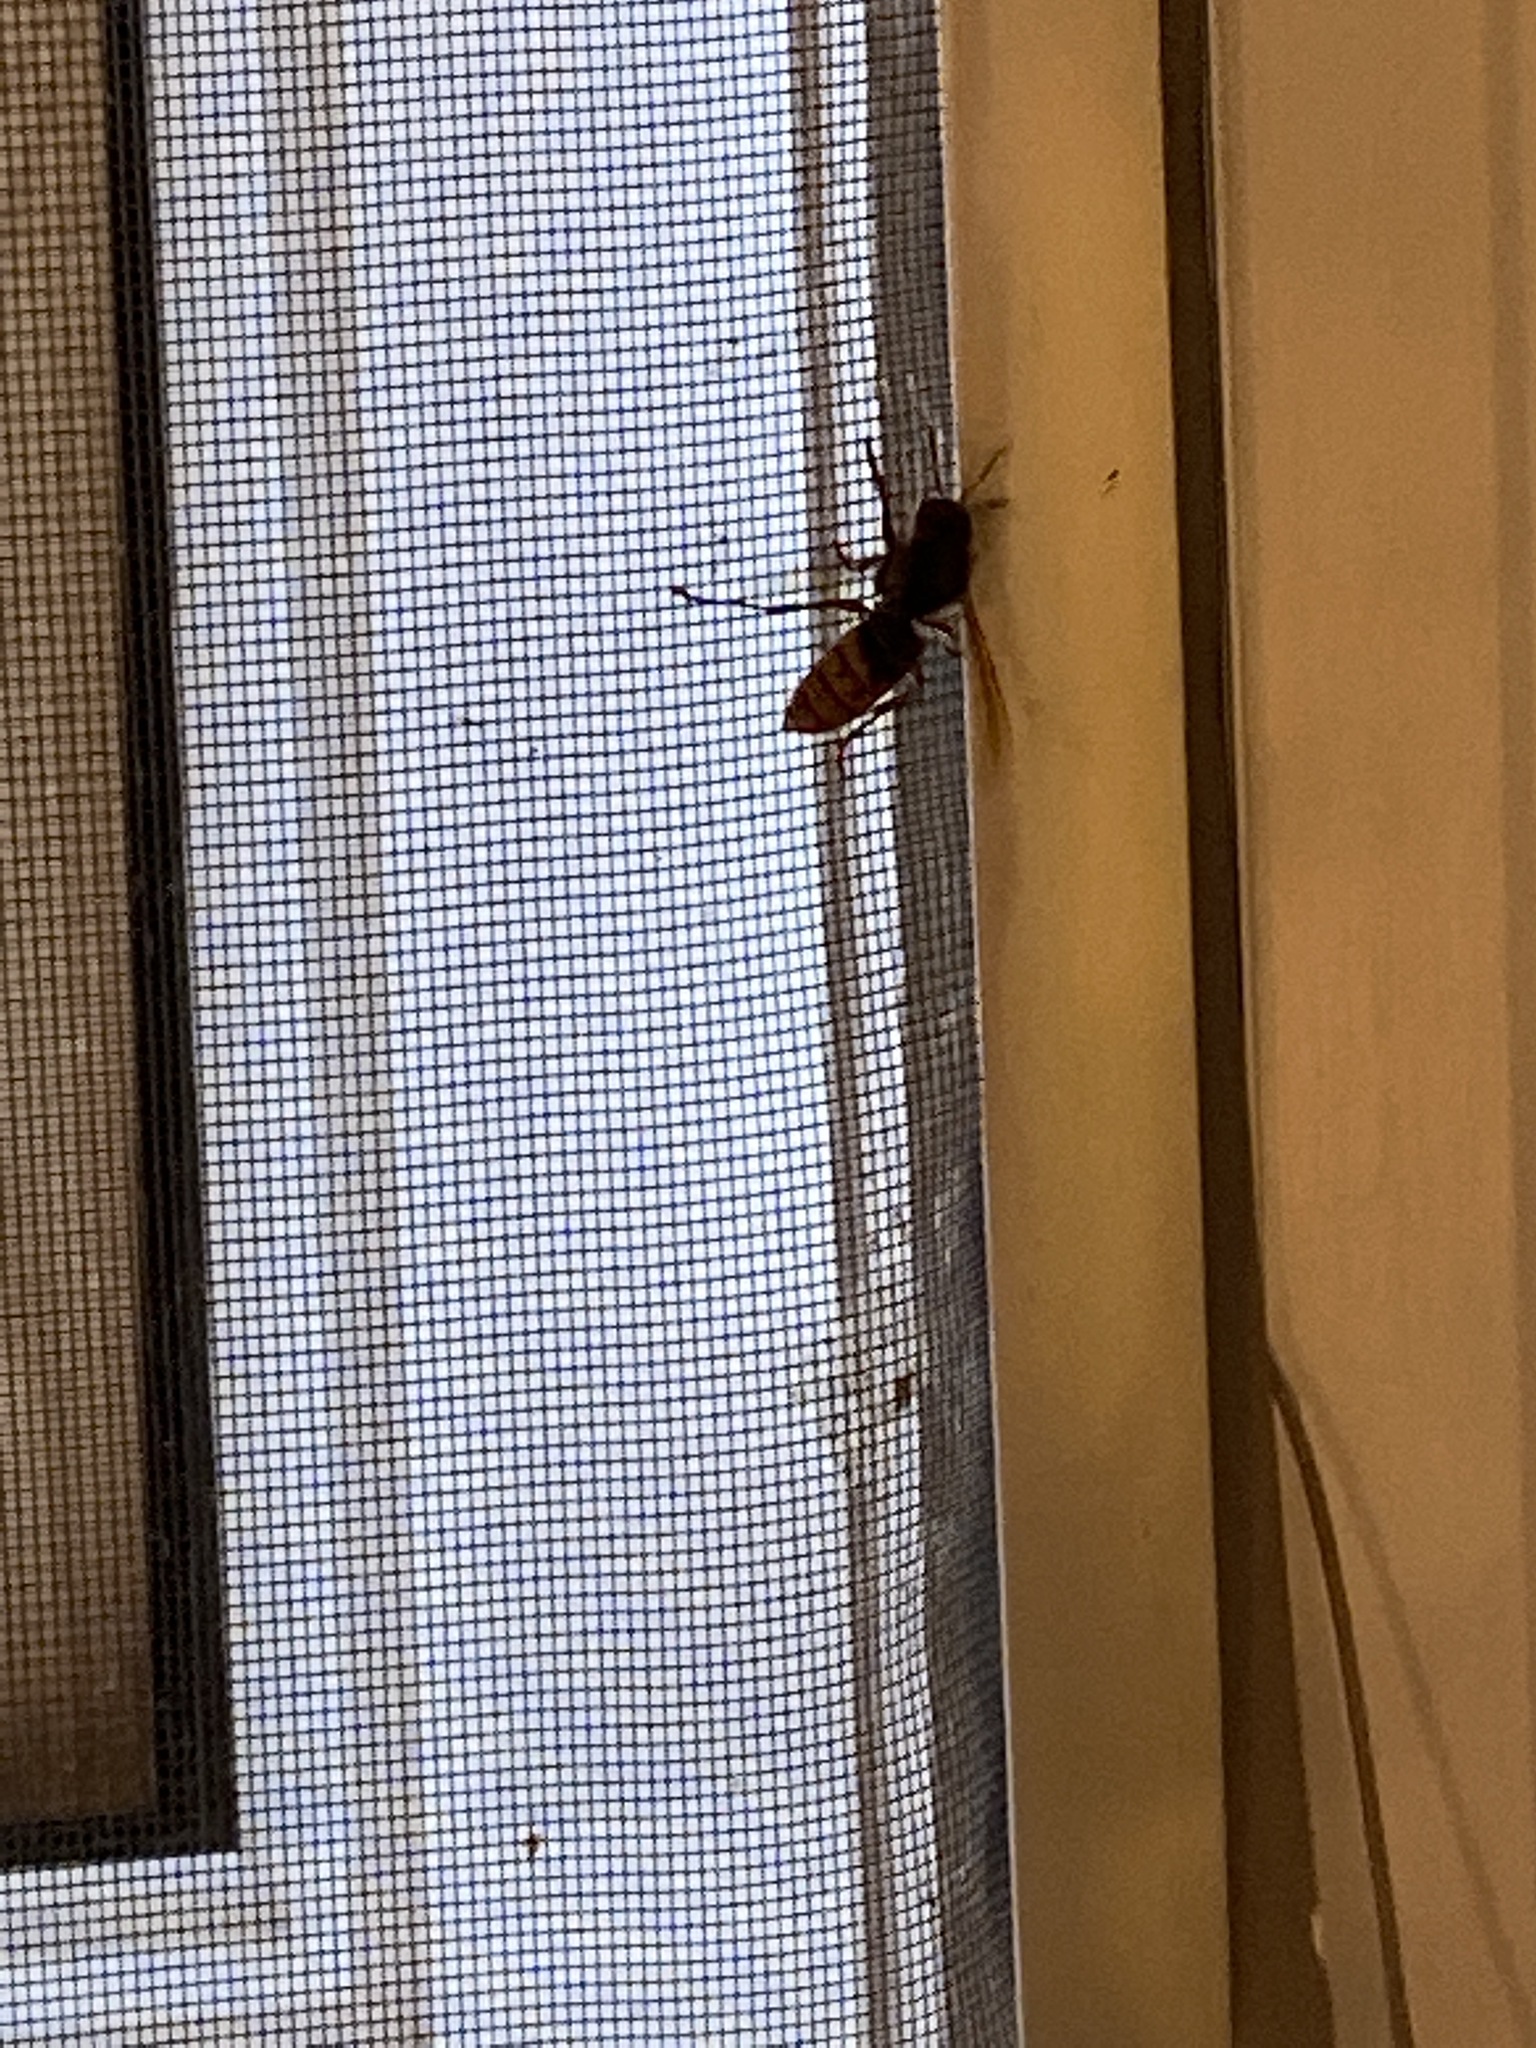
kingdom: Animalia
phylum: Arthropoda
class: Insecta
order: Hymenoptera
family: Vespidae
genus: Vespa
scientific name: Vespa crabro
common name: Hornet
